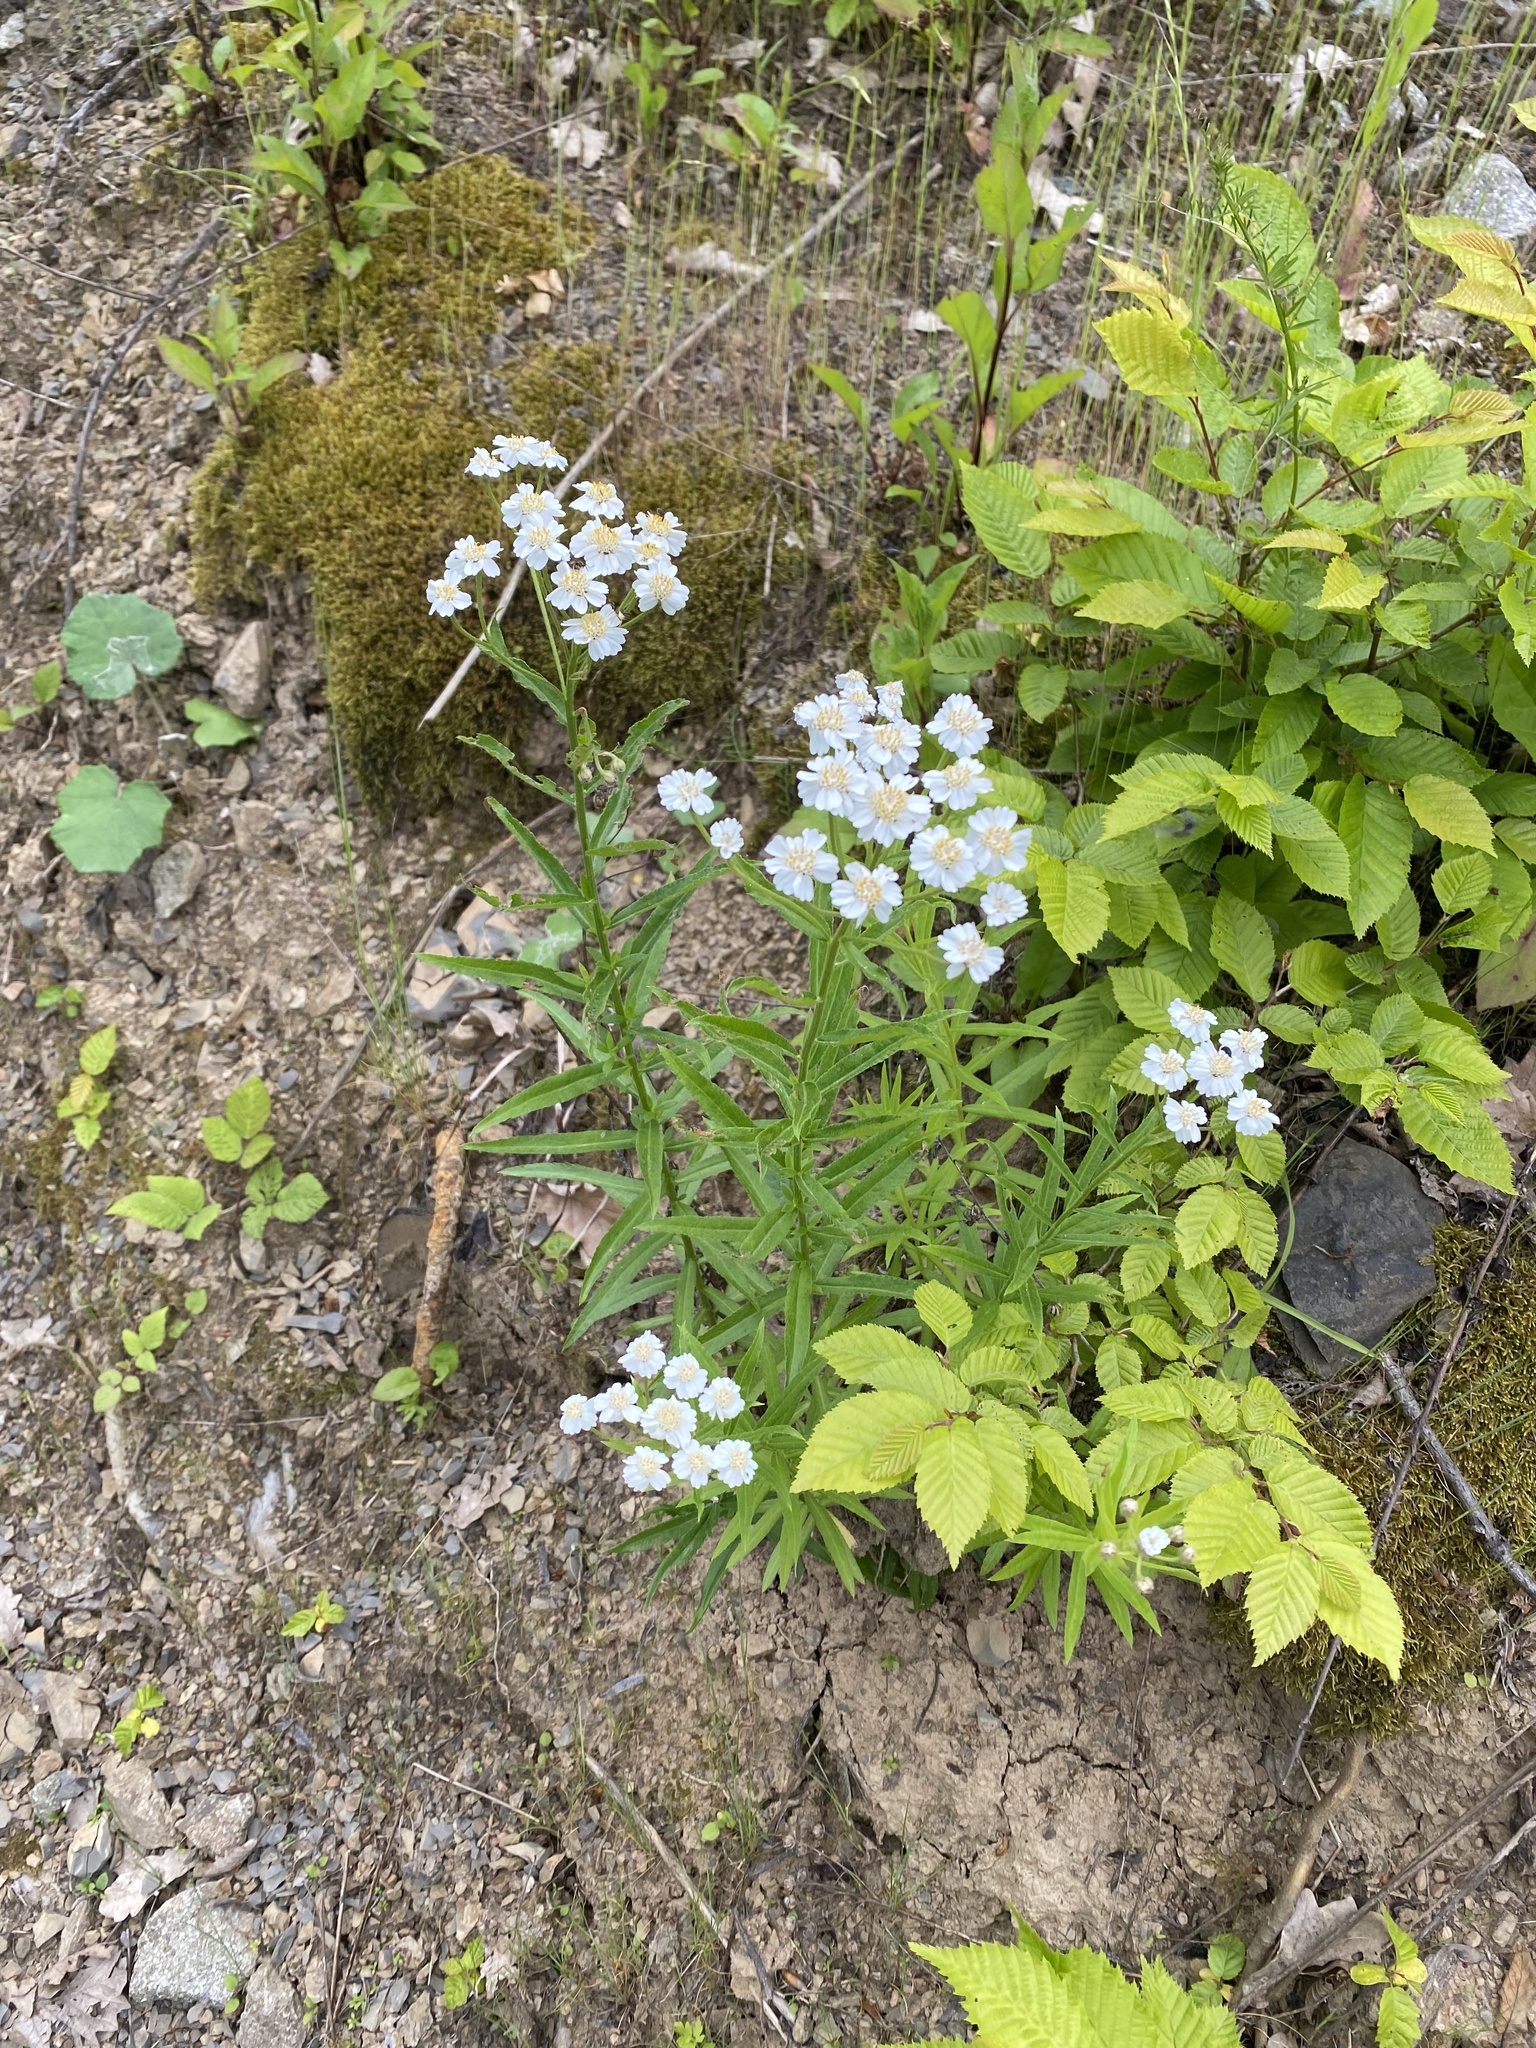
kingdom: Plantae
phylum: Tracheophyta
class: Magnoliopsida
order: Asterales
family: Asteraceae
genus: Achillea
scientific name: Achillea biserrata
